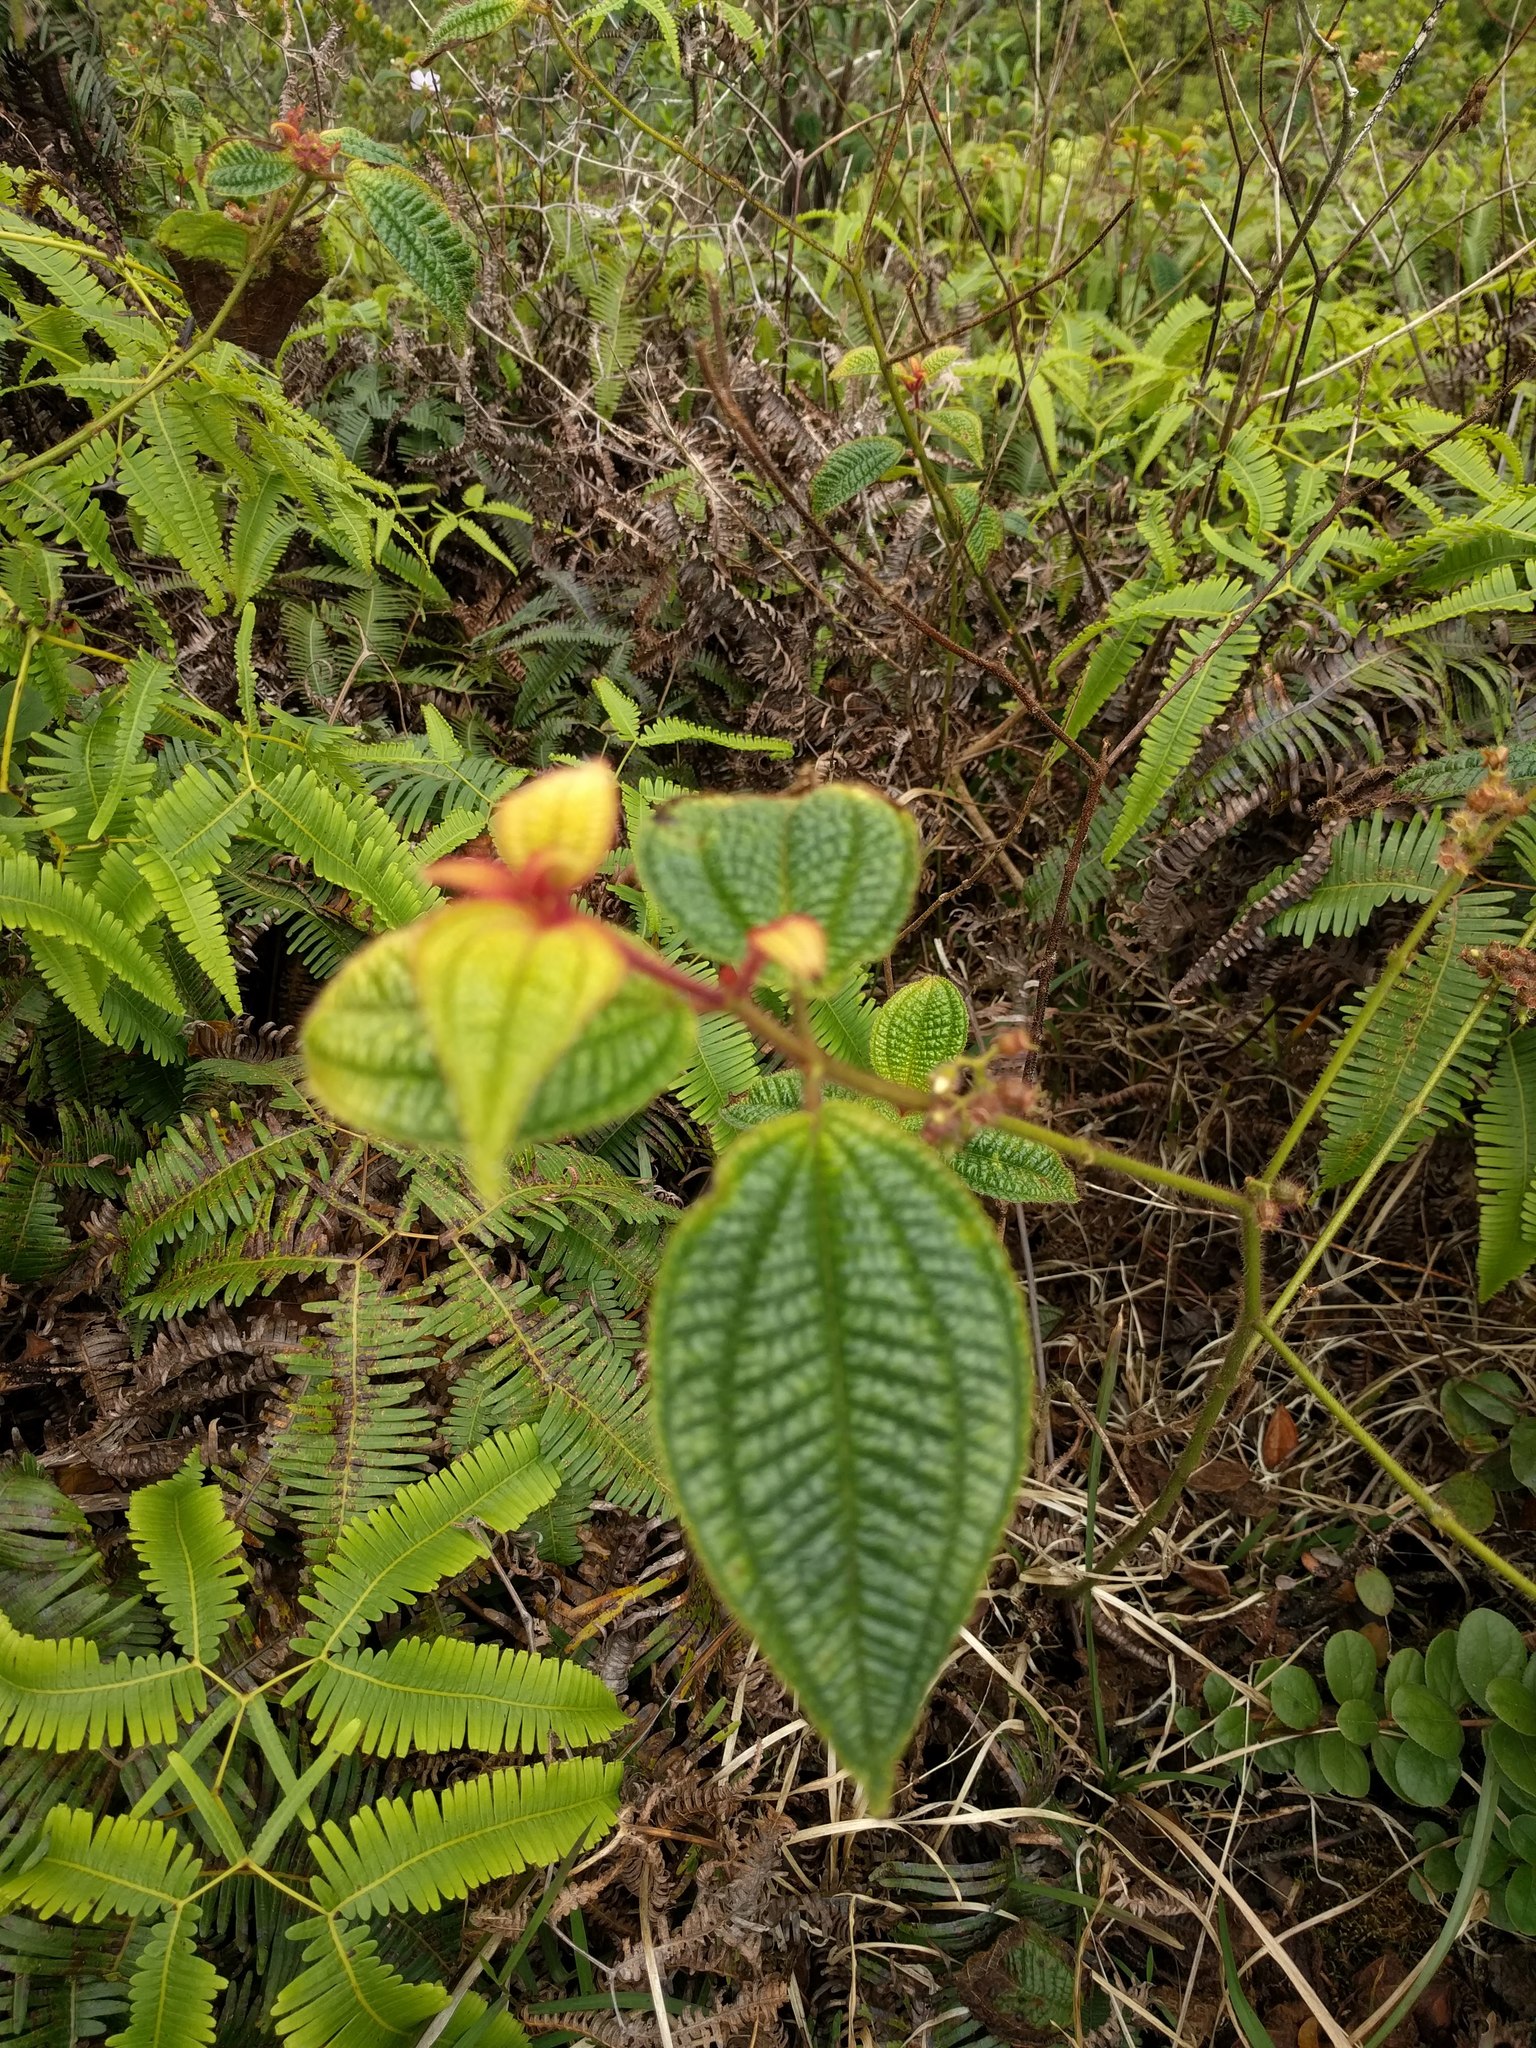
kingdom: Plantae
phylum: Tracheophyta
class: Magnoliopsida
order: Myrtales
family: Melastomataceae
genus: Miconia
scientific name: Miconia crenata
